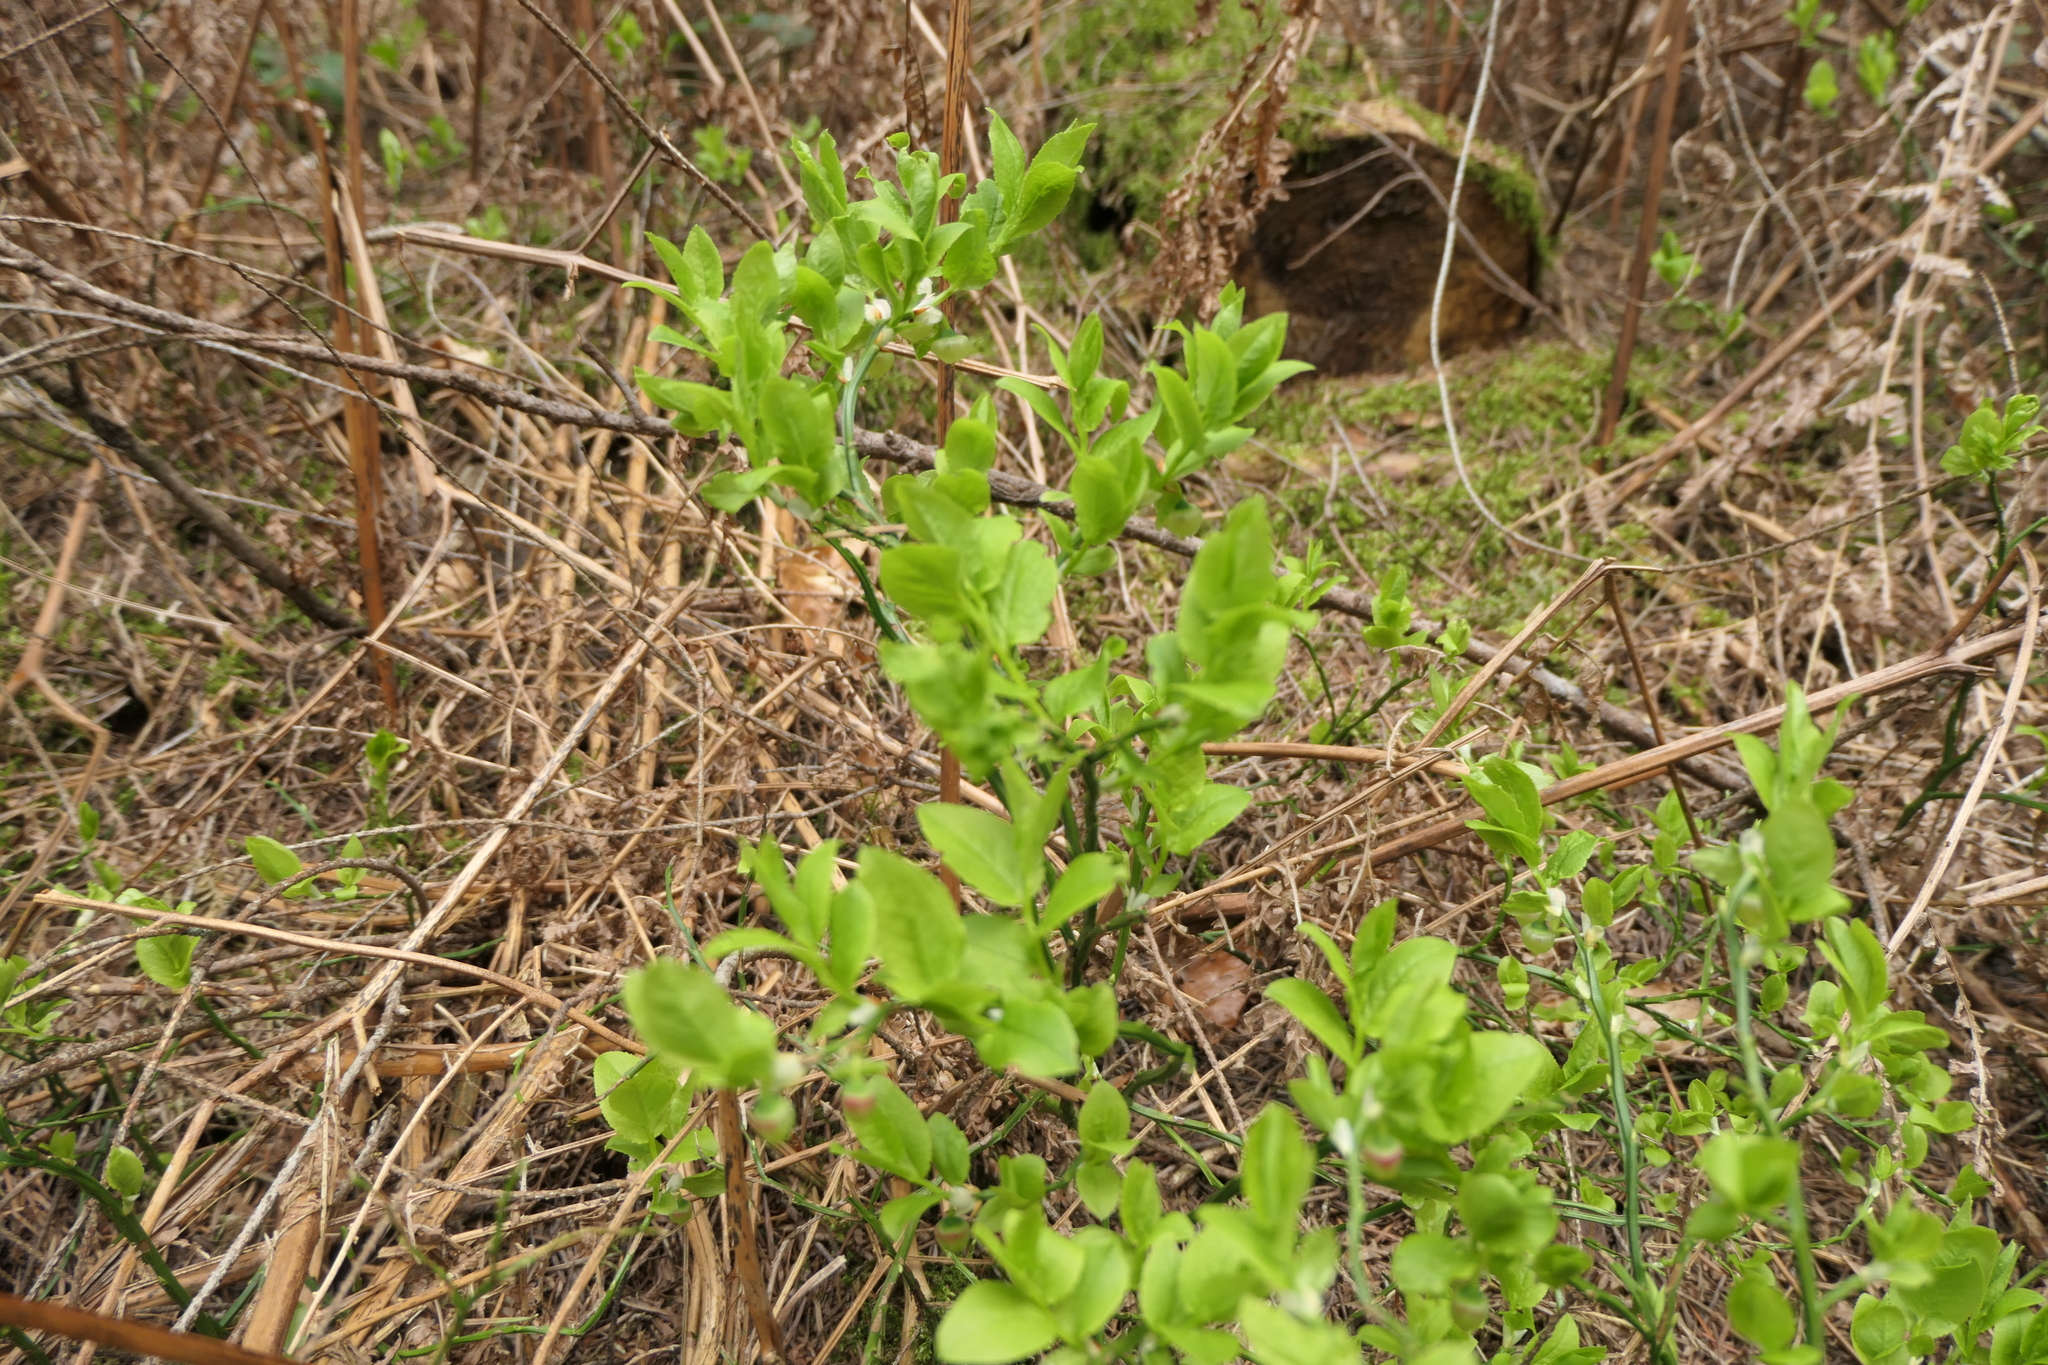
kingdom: Plantae
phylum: Tracheophyta
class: Magnoliopsida
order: Ericales
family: Ericaceae
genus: Vaccinium
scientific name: Vaccinium myrtillus
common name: Bilberry
